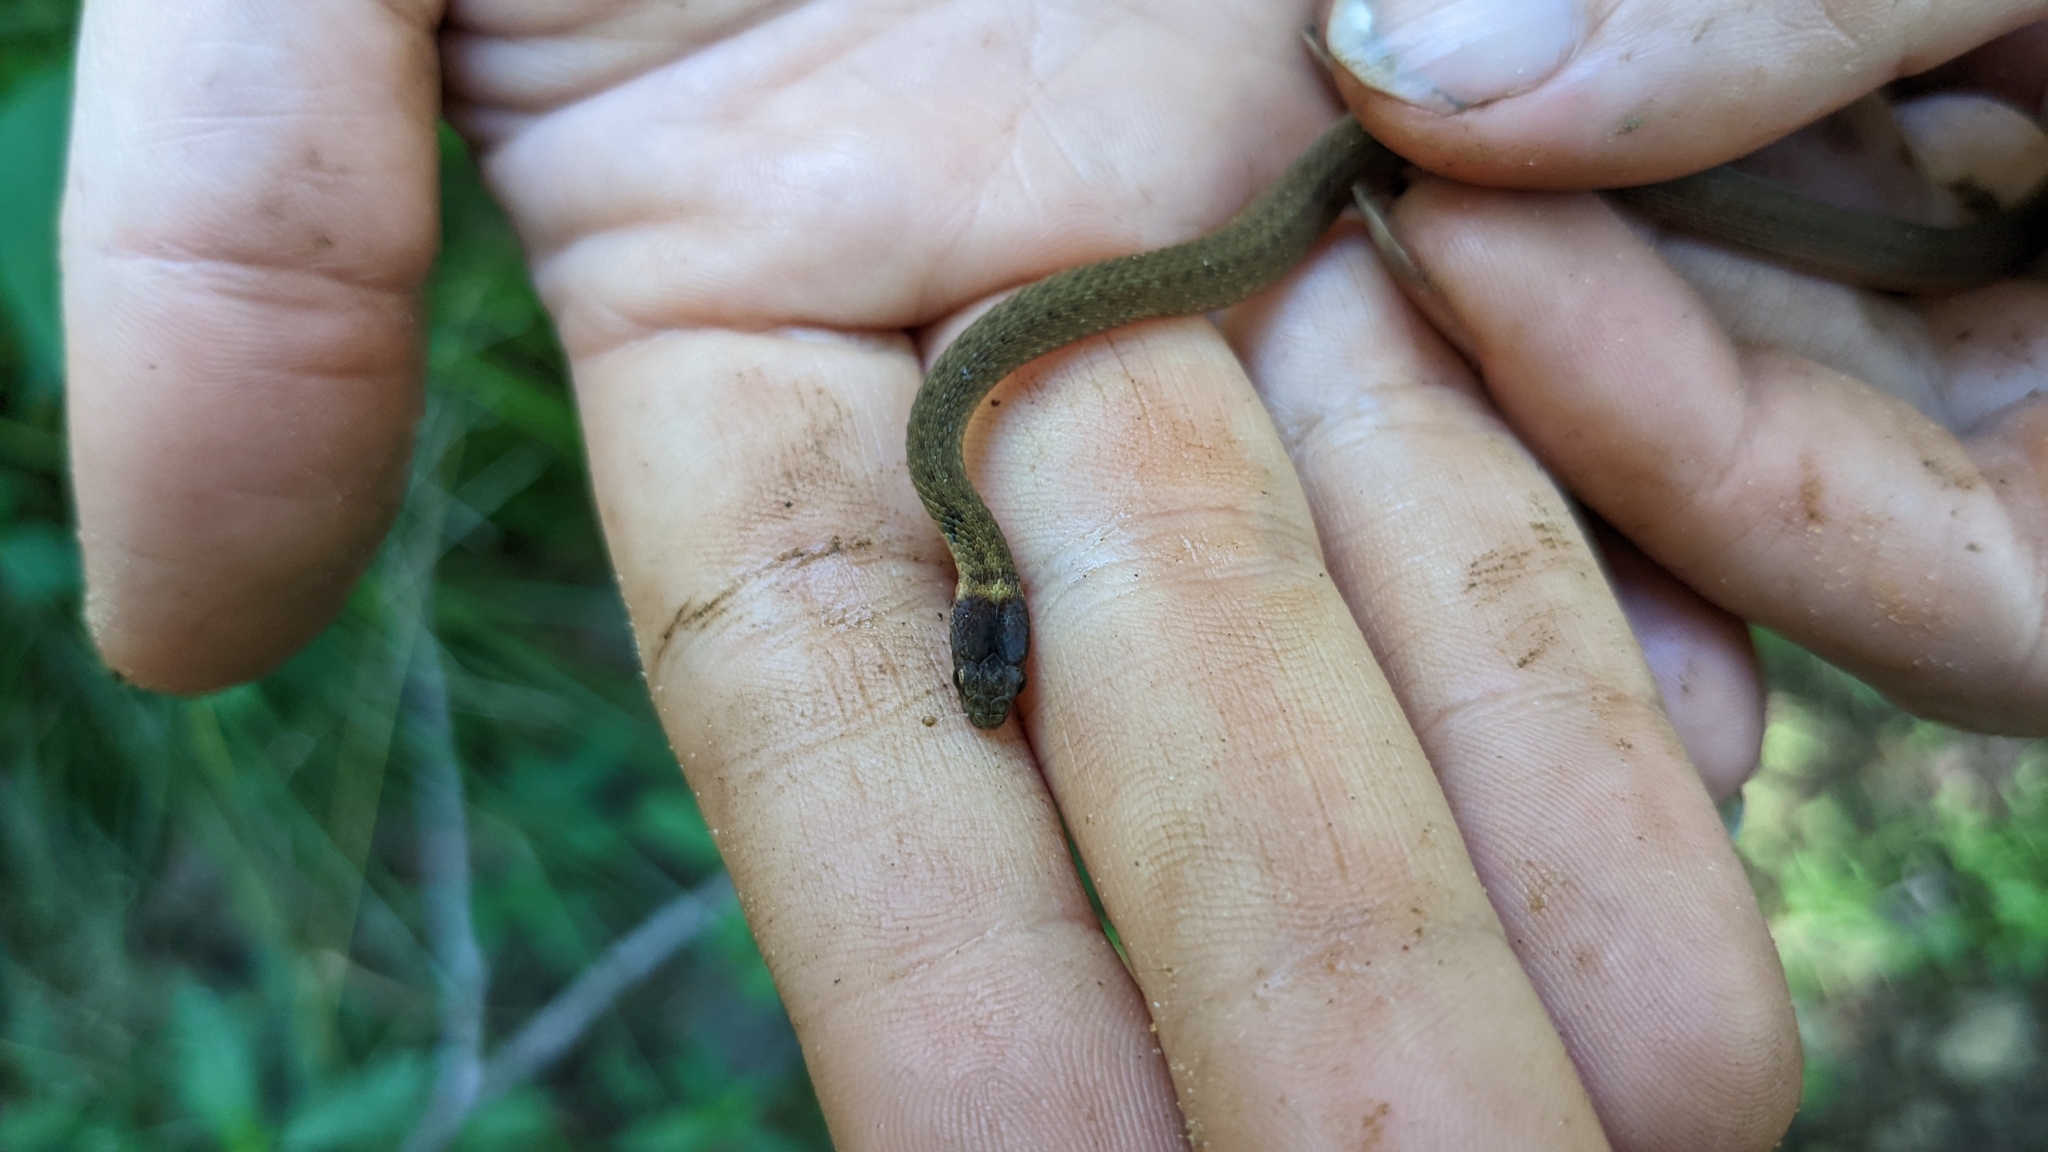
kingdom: Animalia
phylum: Chordata
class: Squamata
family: Colubridae
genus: Storeria
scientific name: Storeria dekayi
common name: (dekay’s) brown snake
